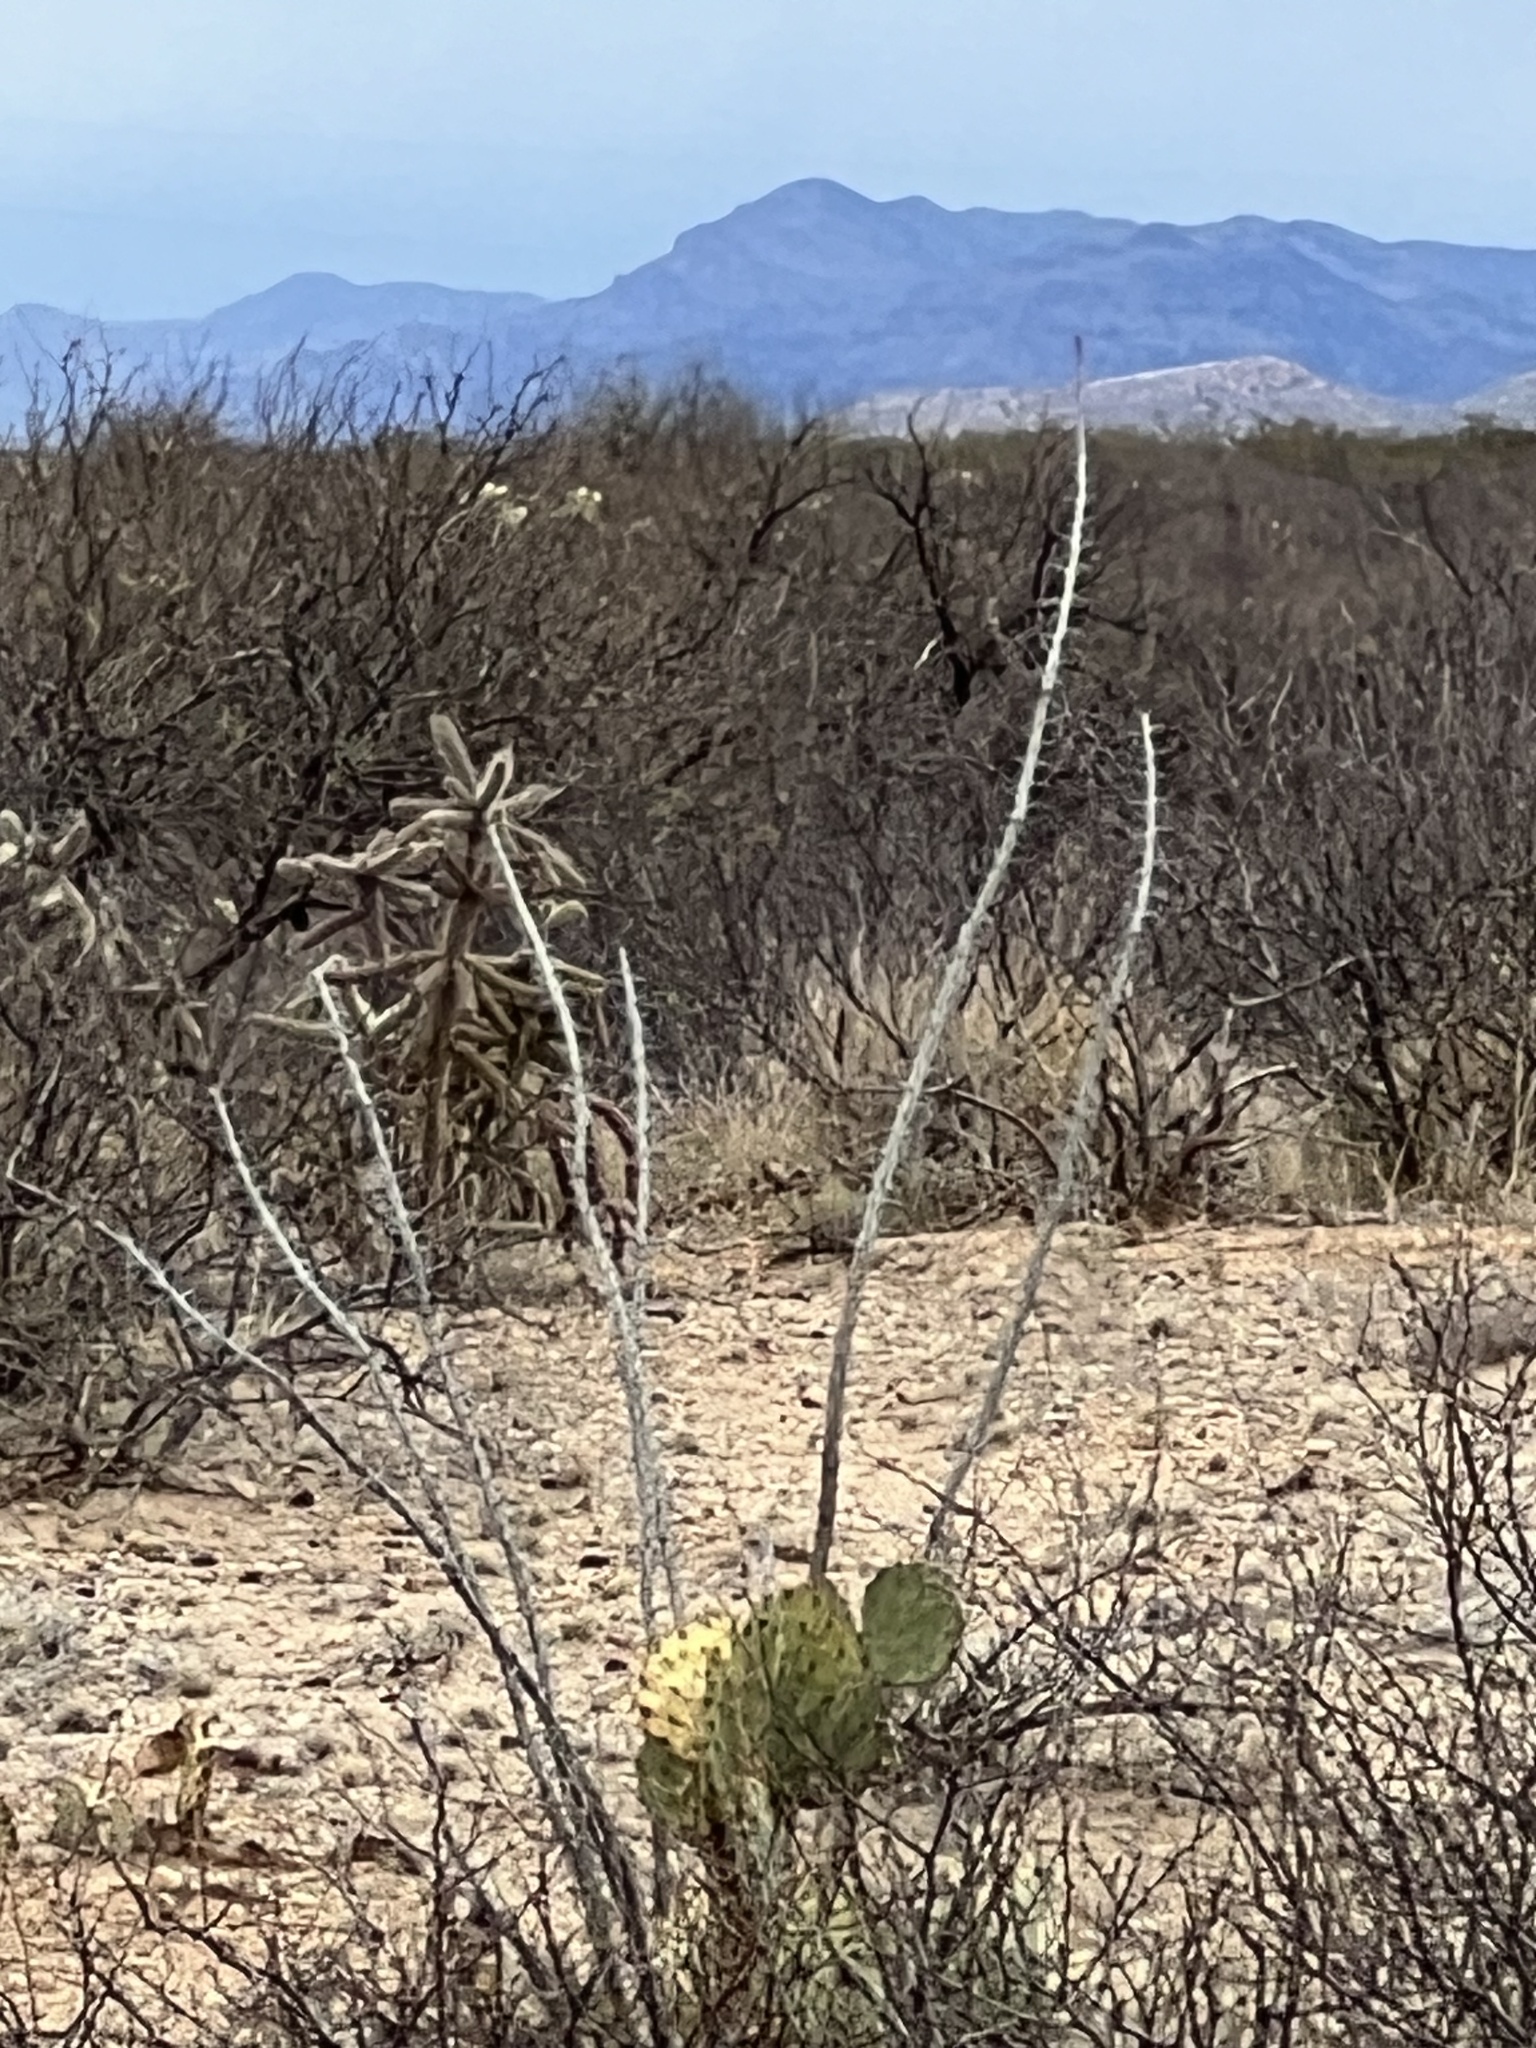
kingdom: Plantae
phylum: Tracheophyta
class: Magnoliopsida
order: Ericales
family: Fouquieriaceae
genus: Fouquieria
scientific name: Fouquieria splendens
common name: Vine-cactus
